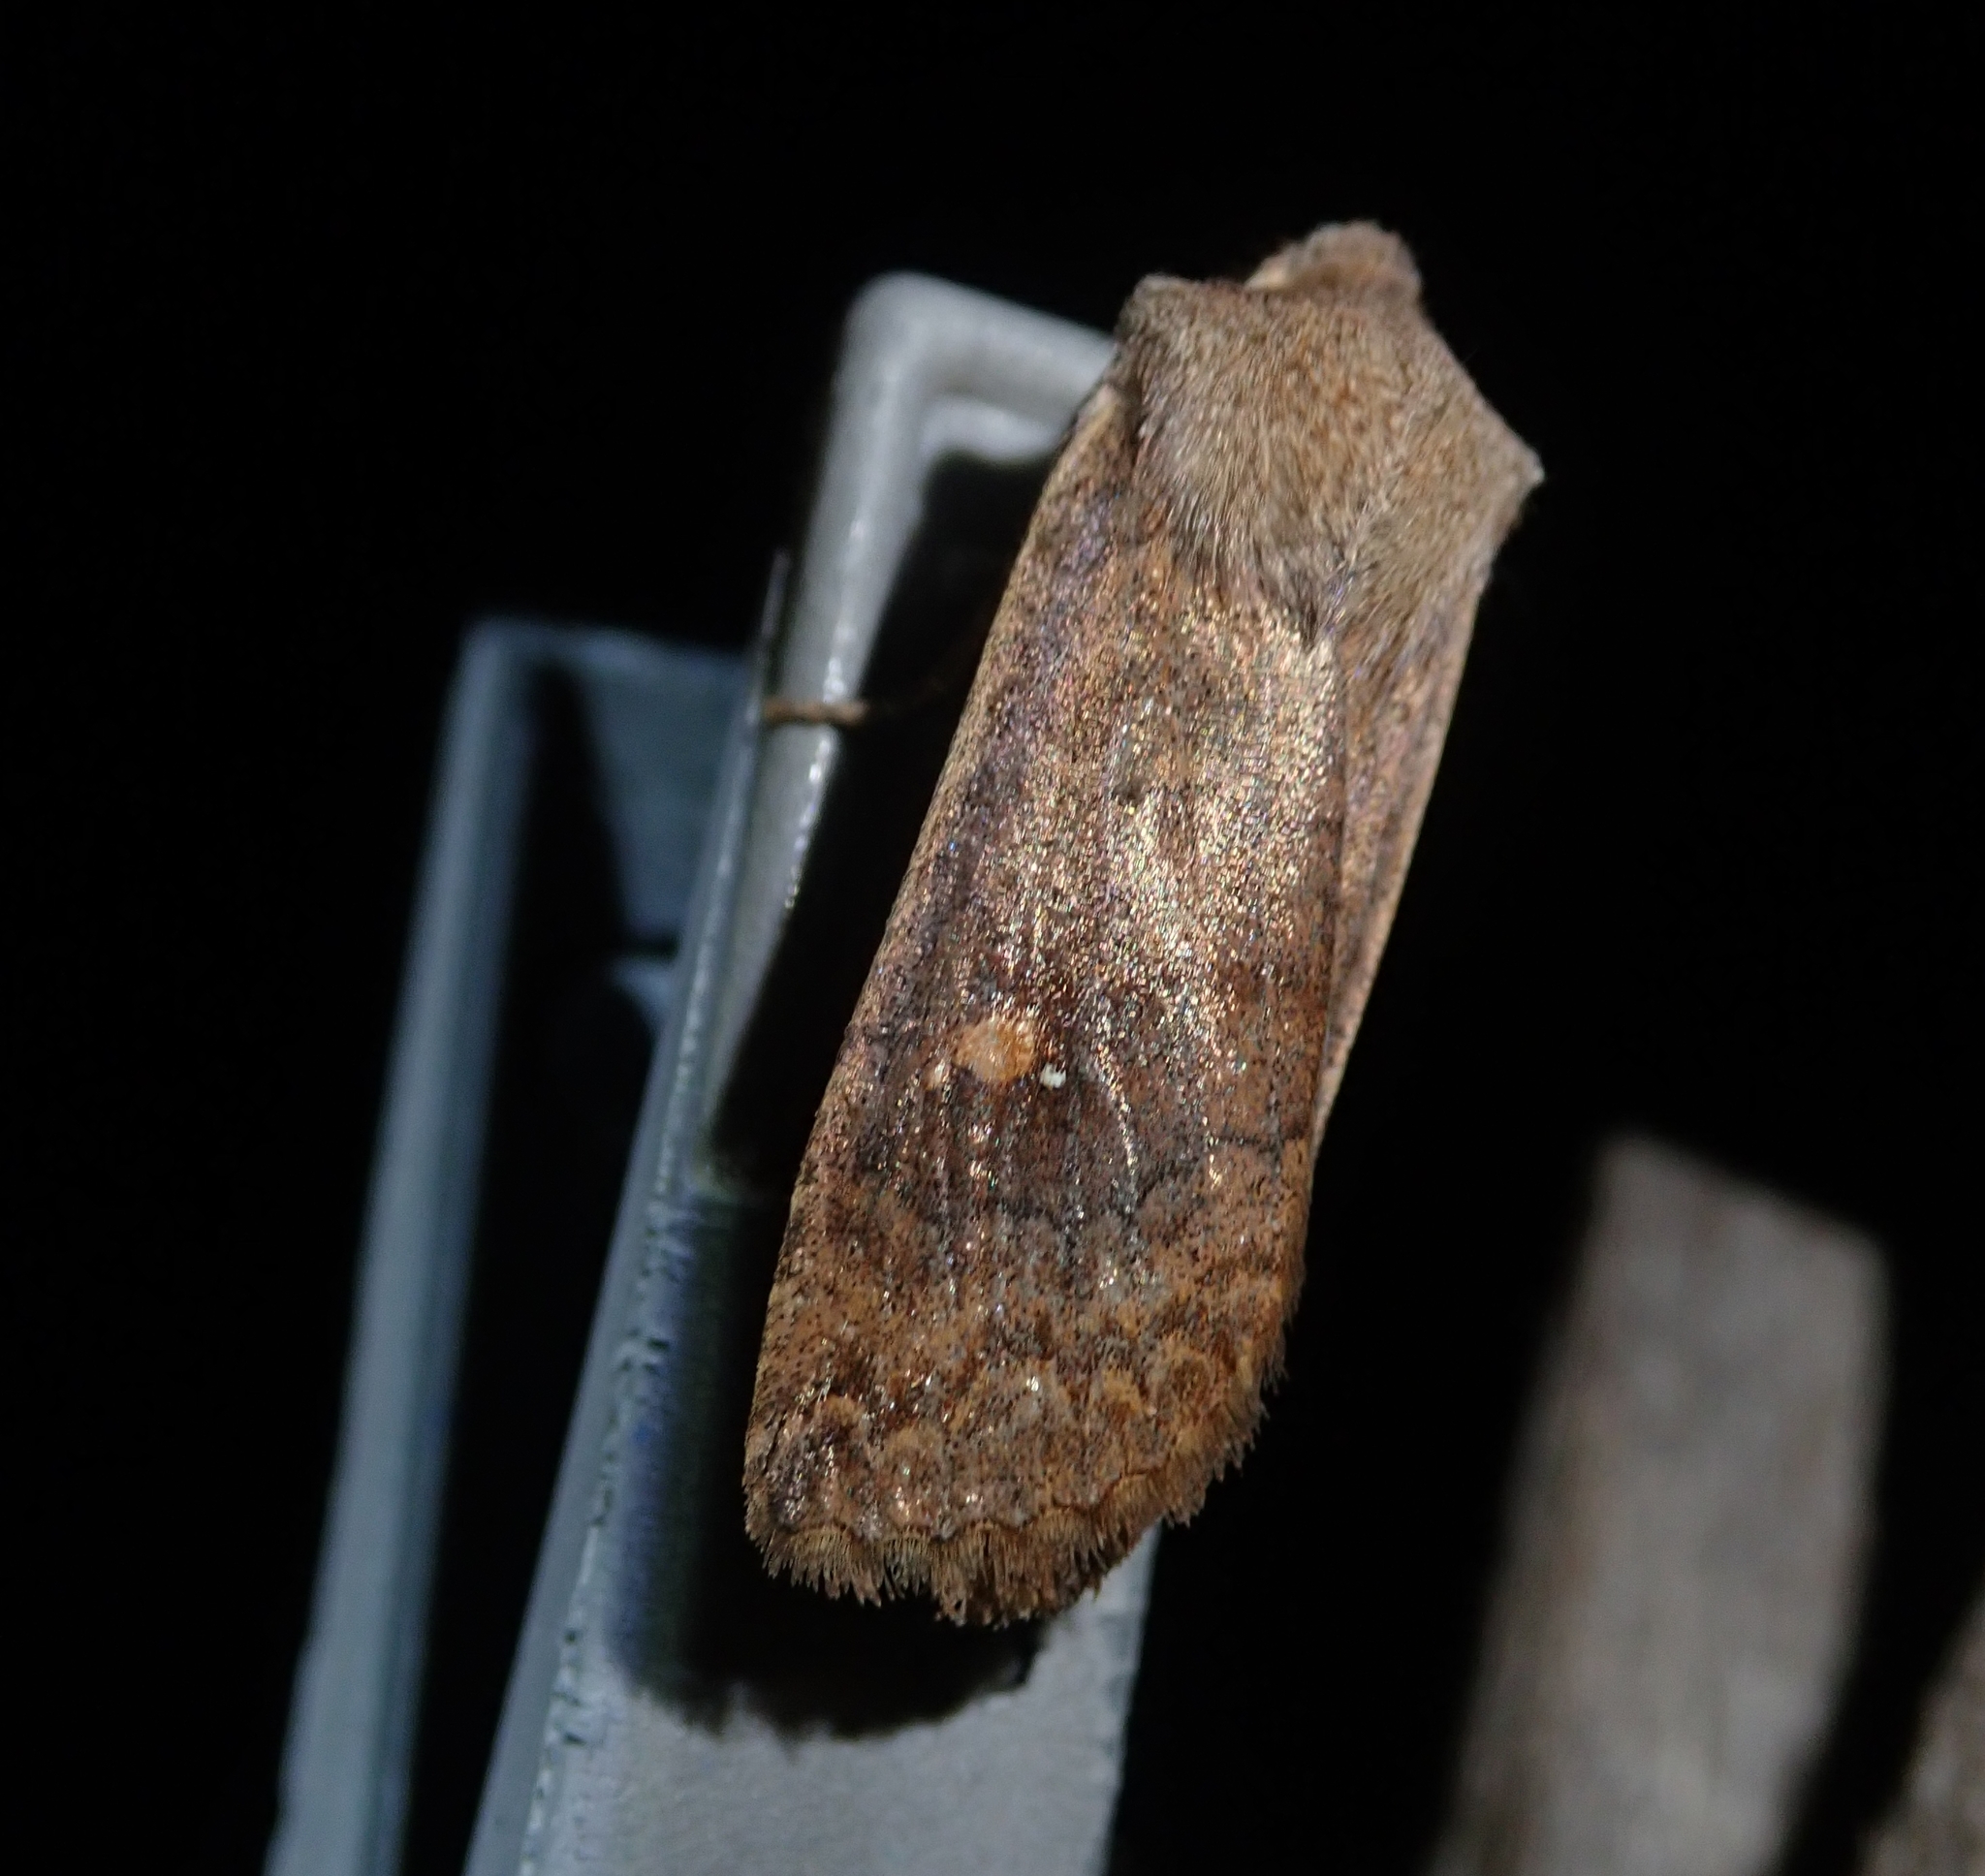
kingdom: Animalia
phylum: Arthropoda
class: Insecta
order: Lepidoptera
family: Noctuidae
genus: Eupsilia
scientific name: Eupsilia transversa
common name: Satellite
